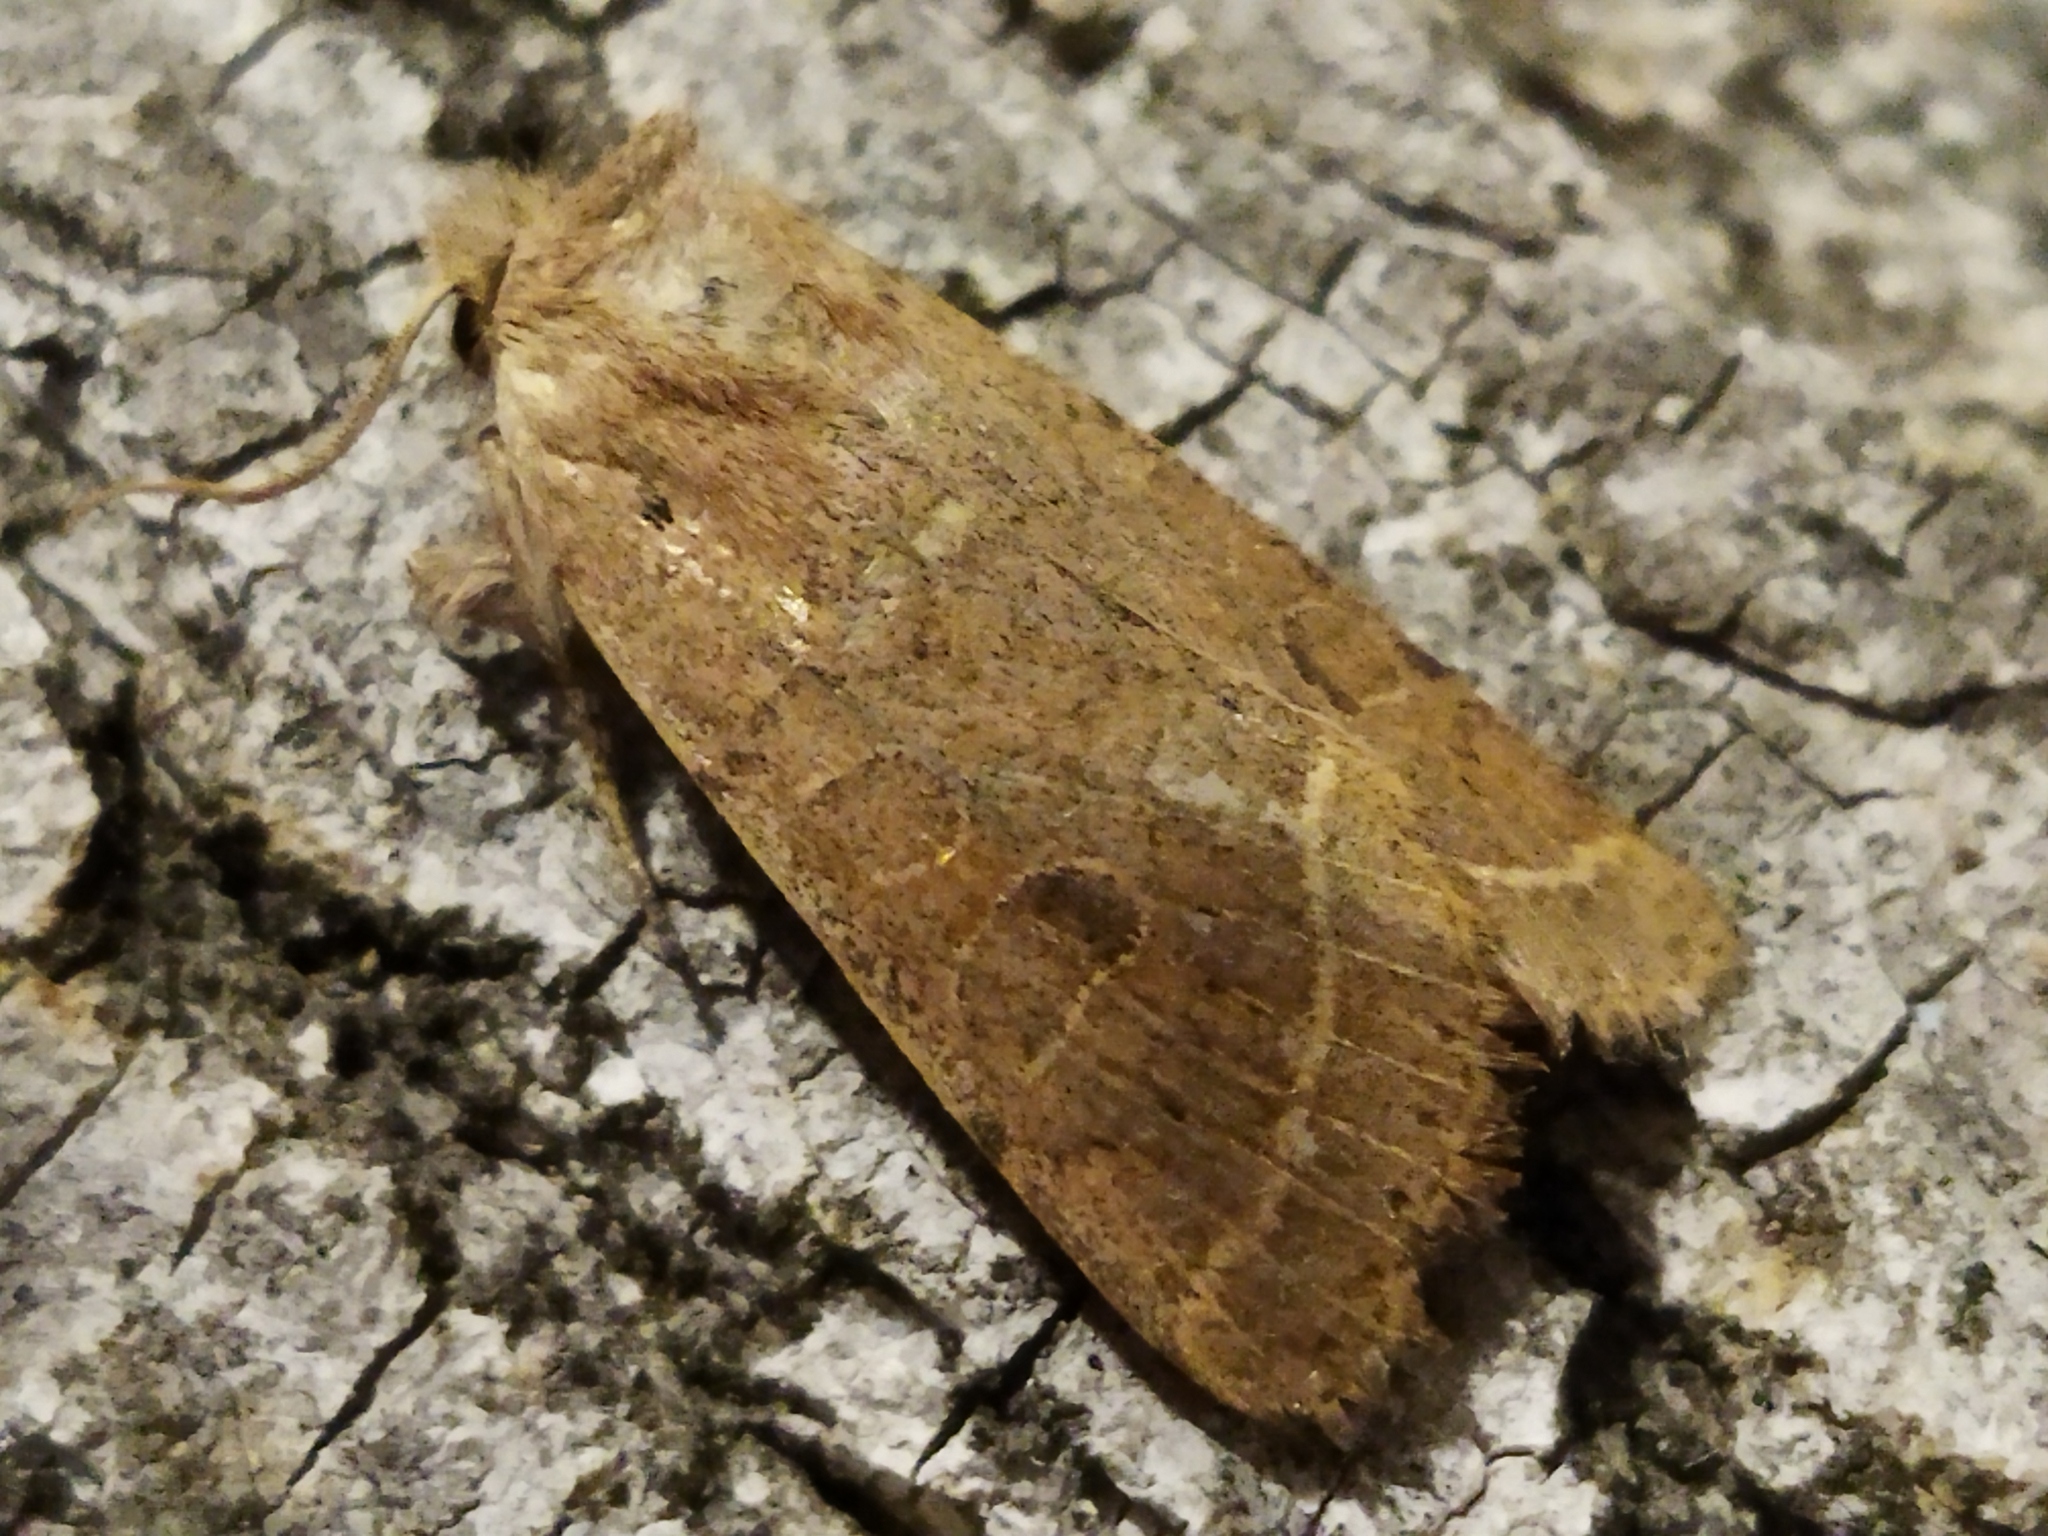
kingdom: Animalia
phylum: Arthropoda
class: Insecta
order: Lepidoptera
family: Noctuidae
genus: Orthosia
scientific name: Orthosia cerasi
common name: Common quaker
